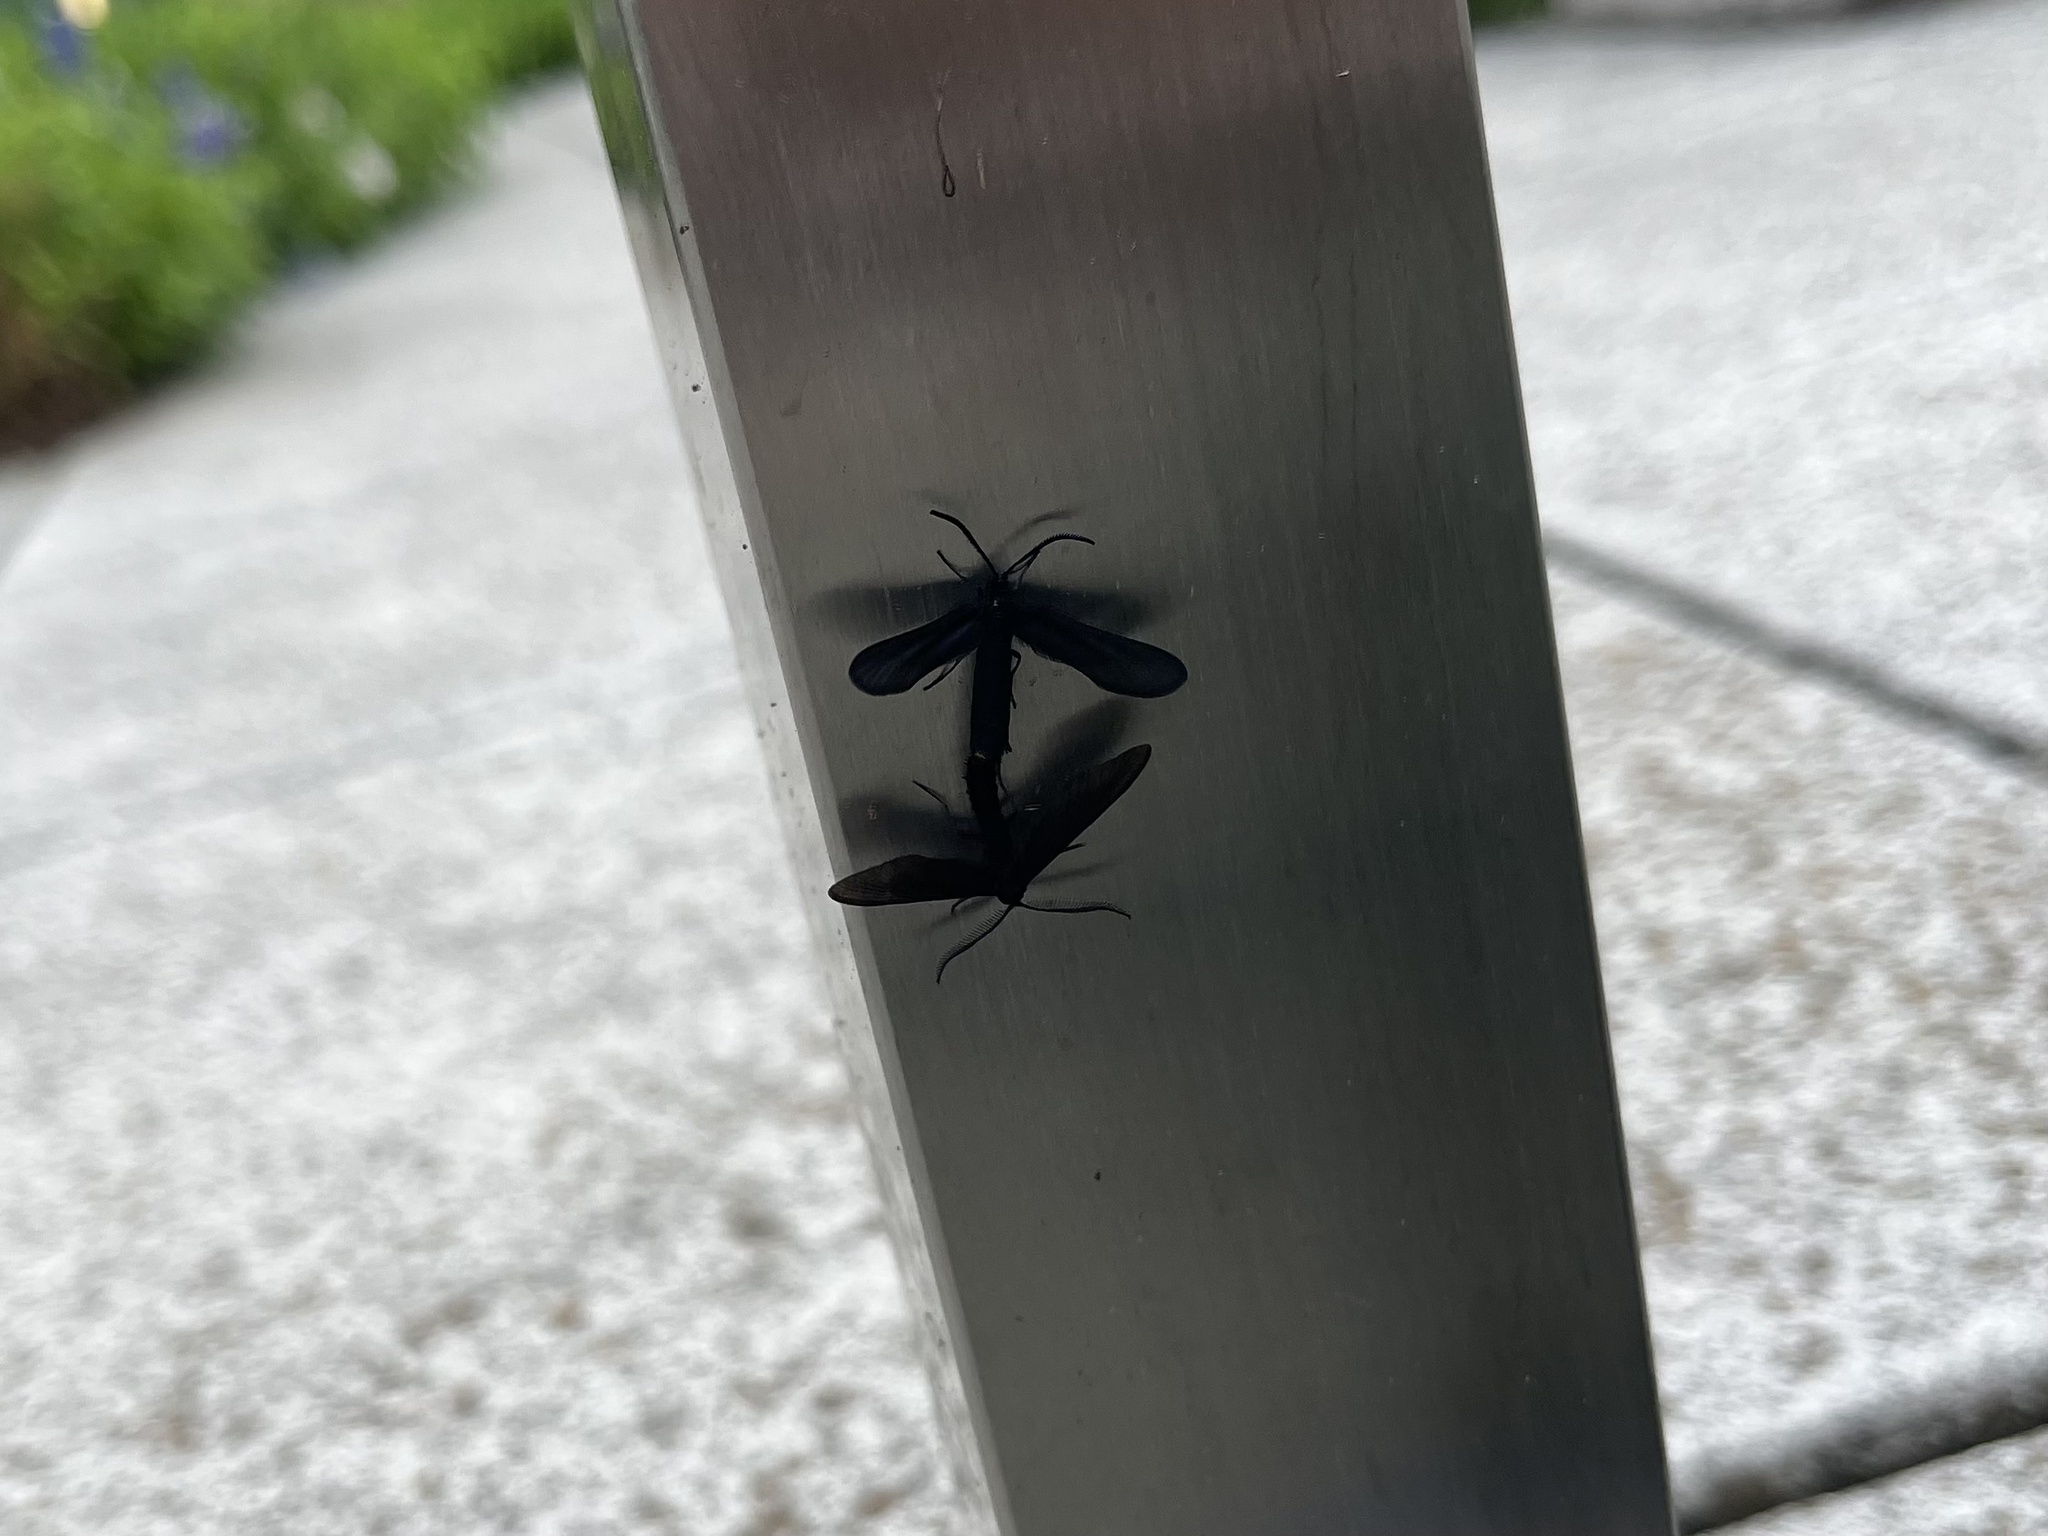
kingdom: Animalia
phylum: Arthropoda
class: Insecta
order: Lepidoptera
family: Zygaenidae
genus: Harrisina
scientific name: Harrisina coracina
